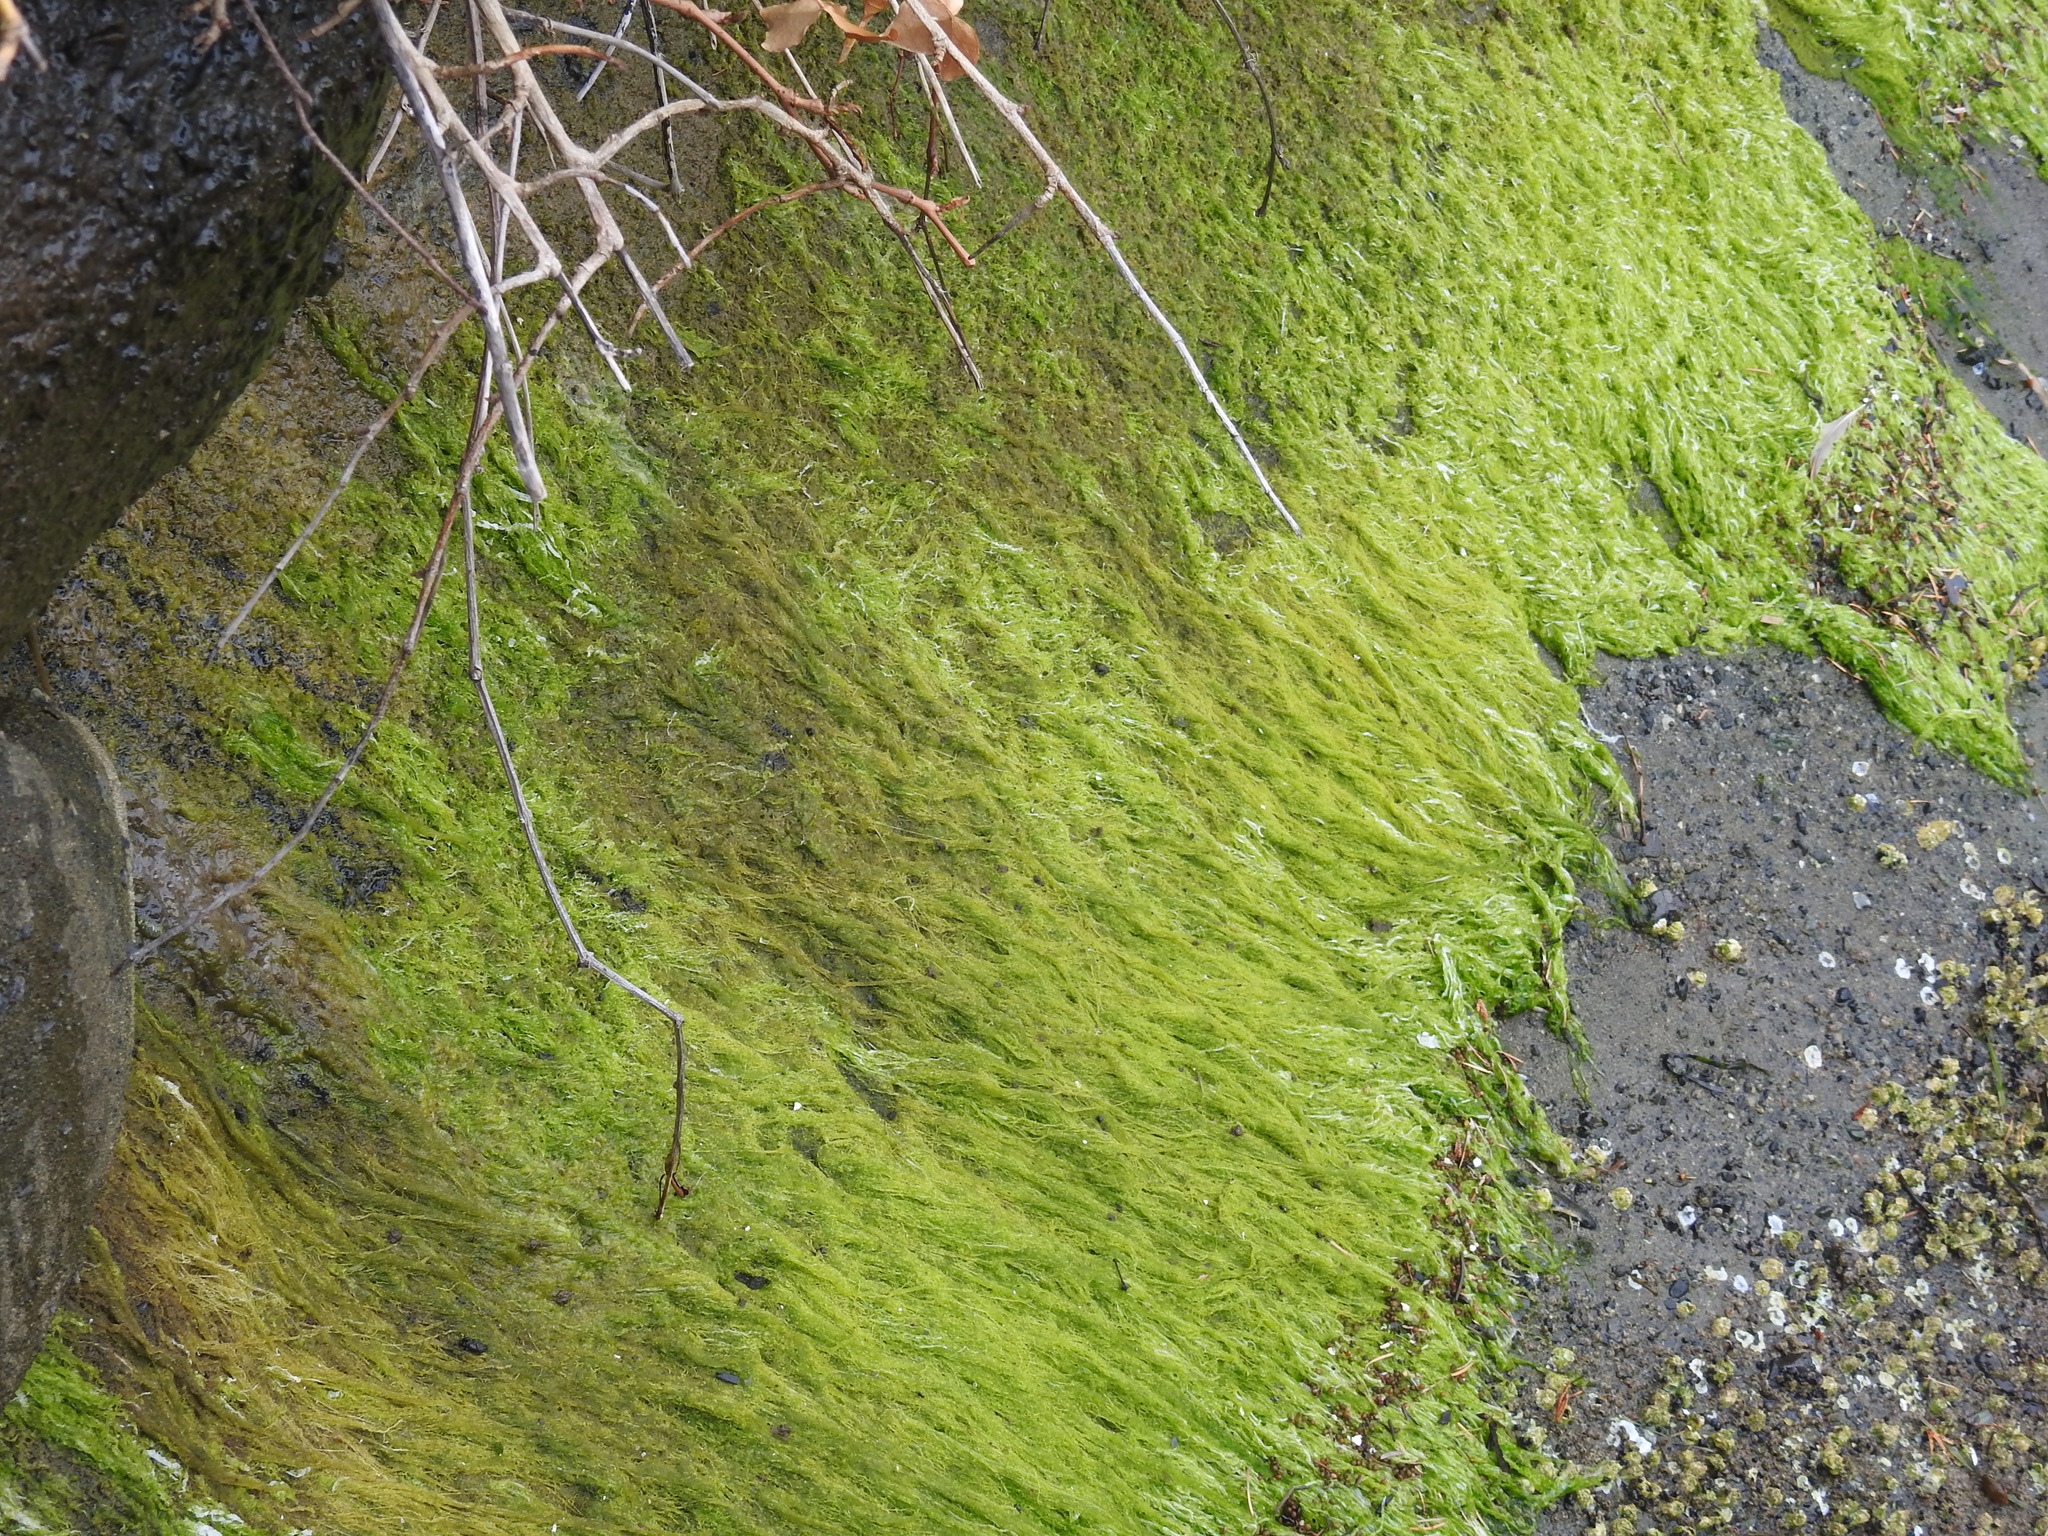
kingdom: Plantae
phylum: Chlorophyta
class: Ulvophyceae
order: Ulvales
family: Ulvaceae
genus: Ulva
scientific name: Ulva fenestrata
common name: Sea lettuce
